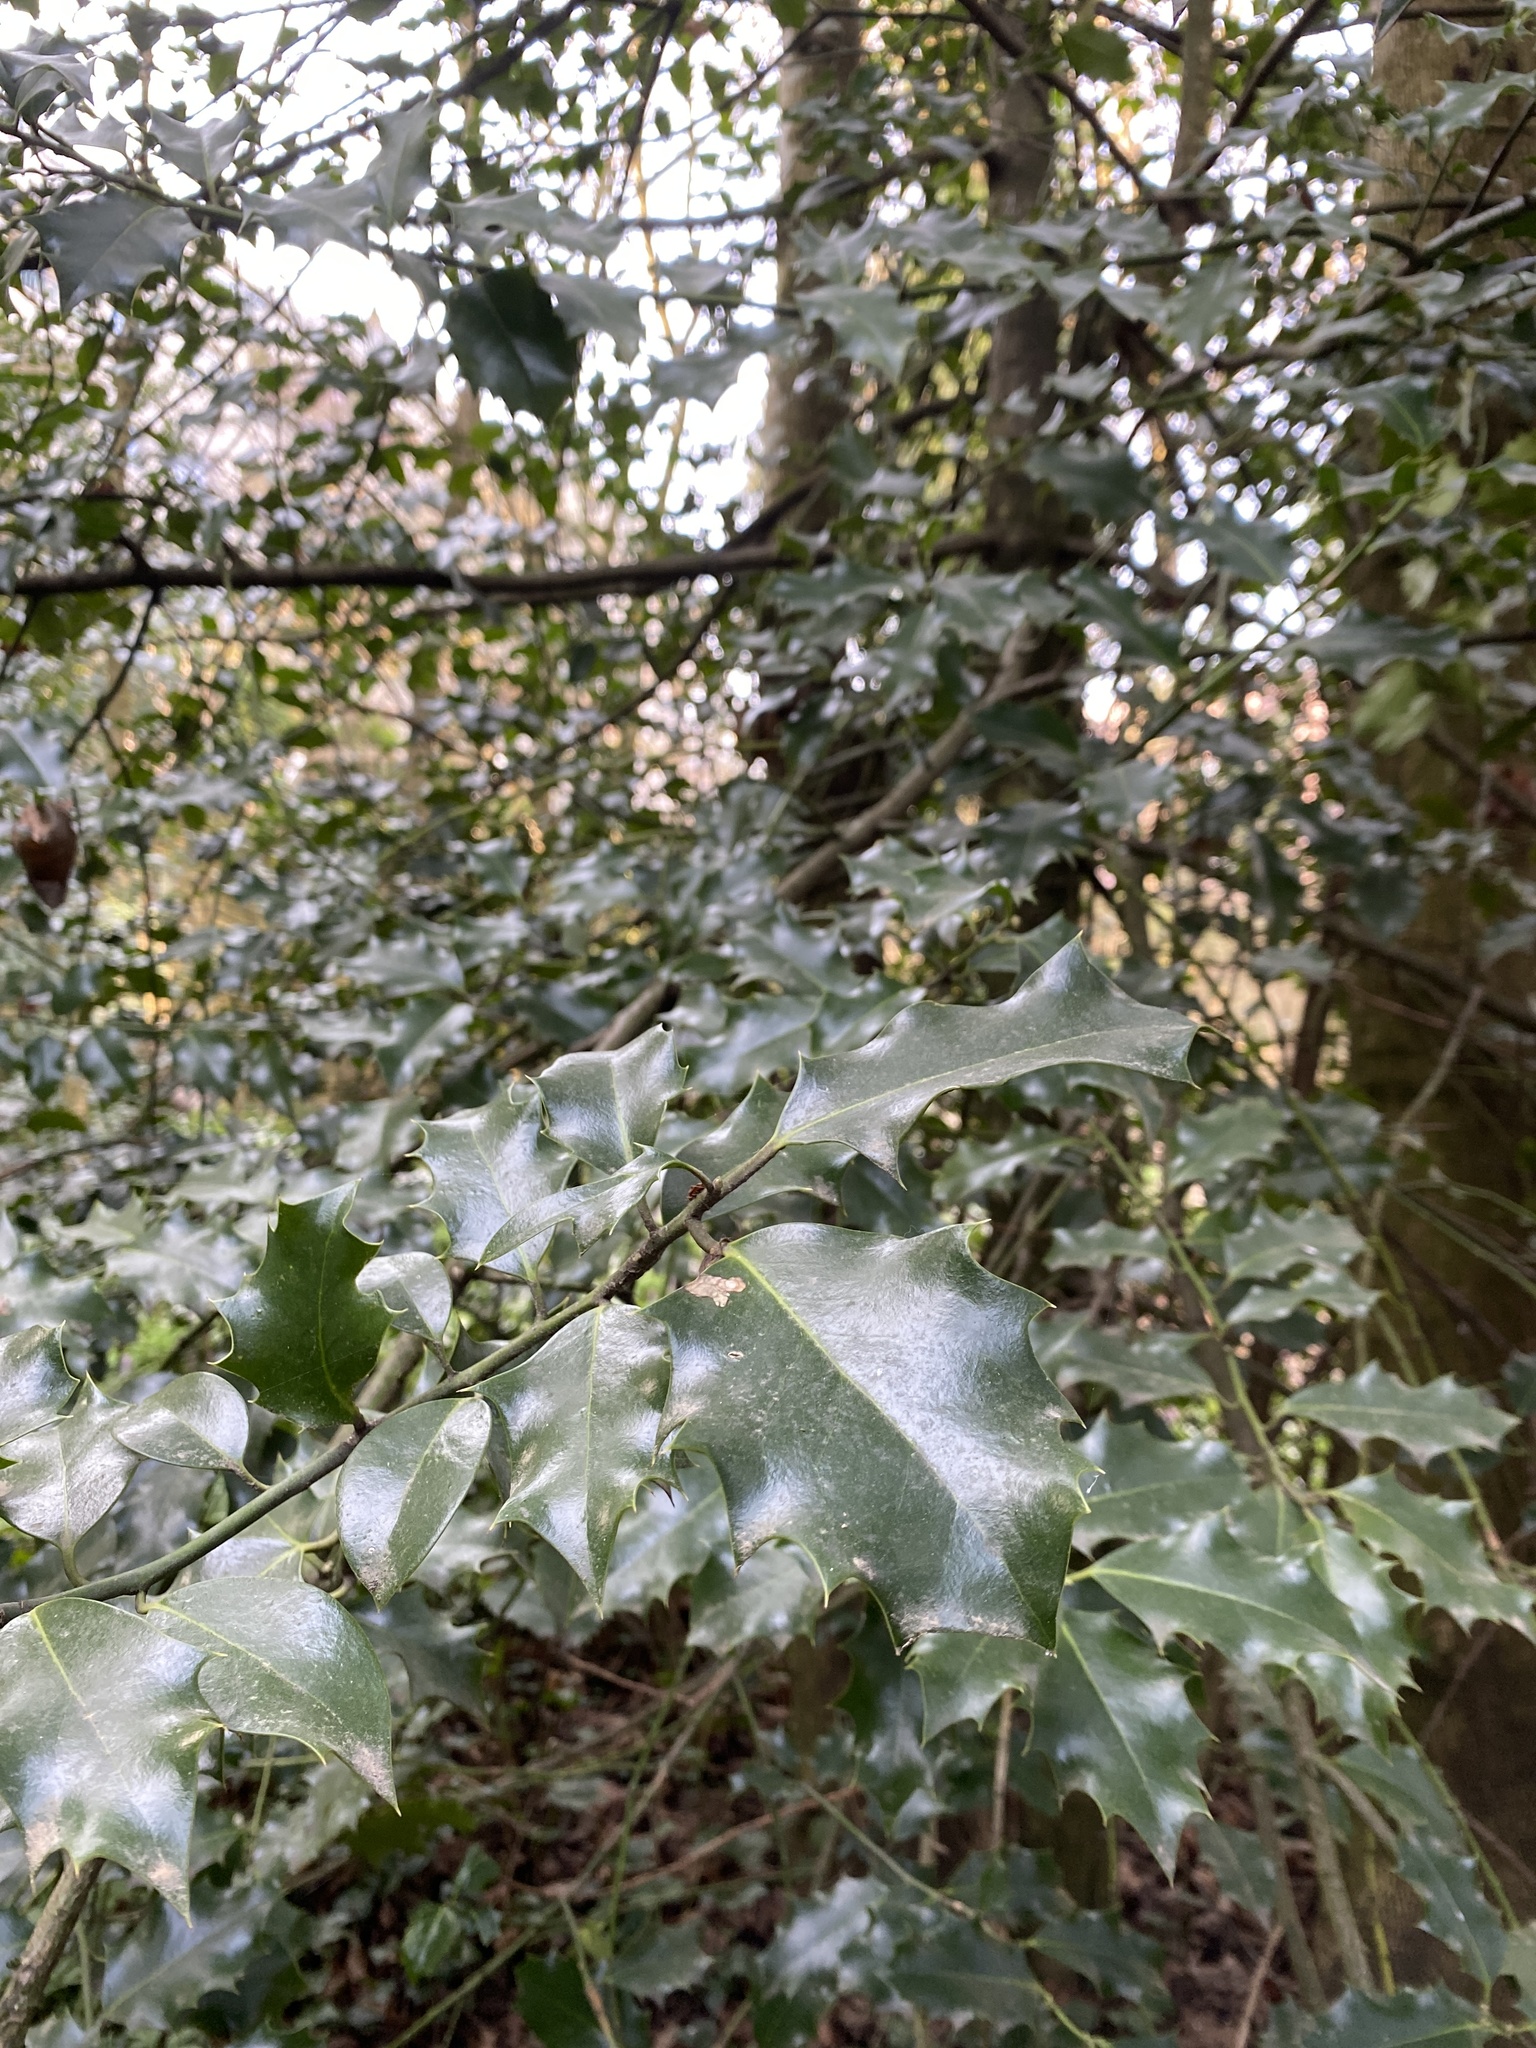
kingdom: Plantae
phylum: Tracheophyta
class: Magnoliopsida
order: Aquifoliales
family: Aquifoliaceae
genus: Ilex
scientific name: Ilex aquifolium
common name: English holly
